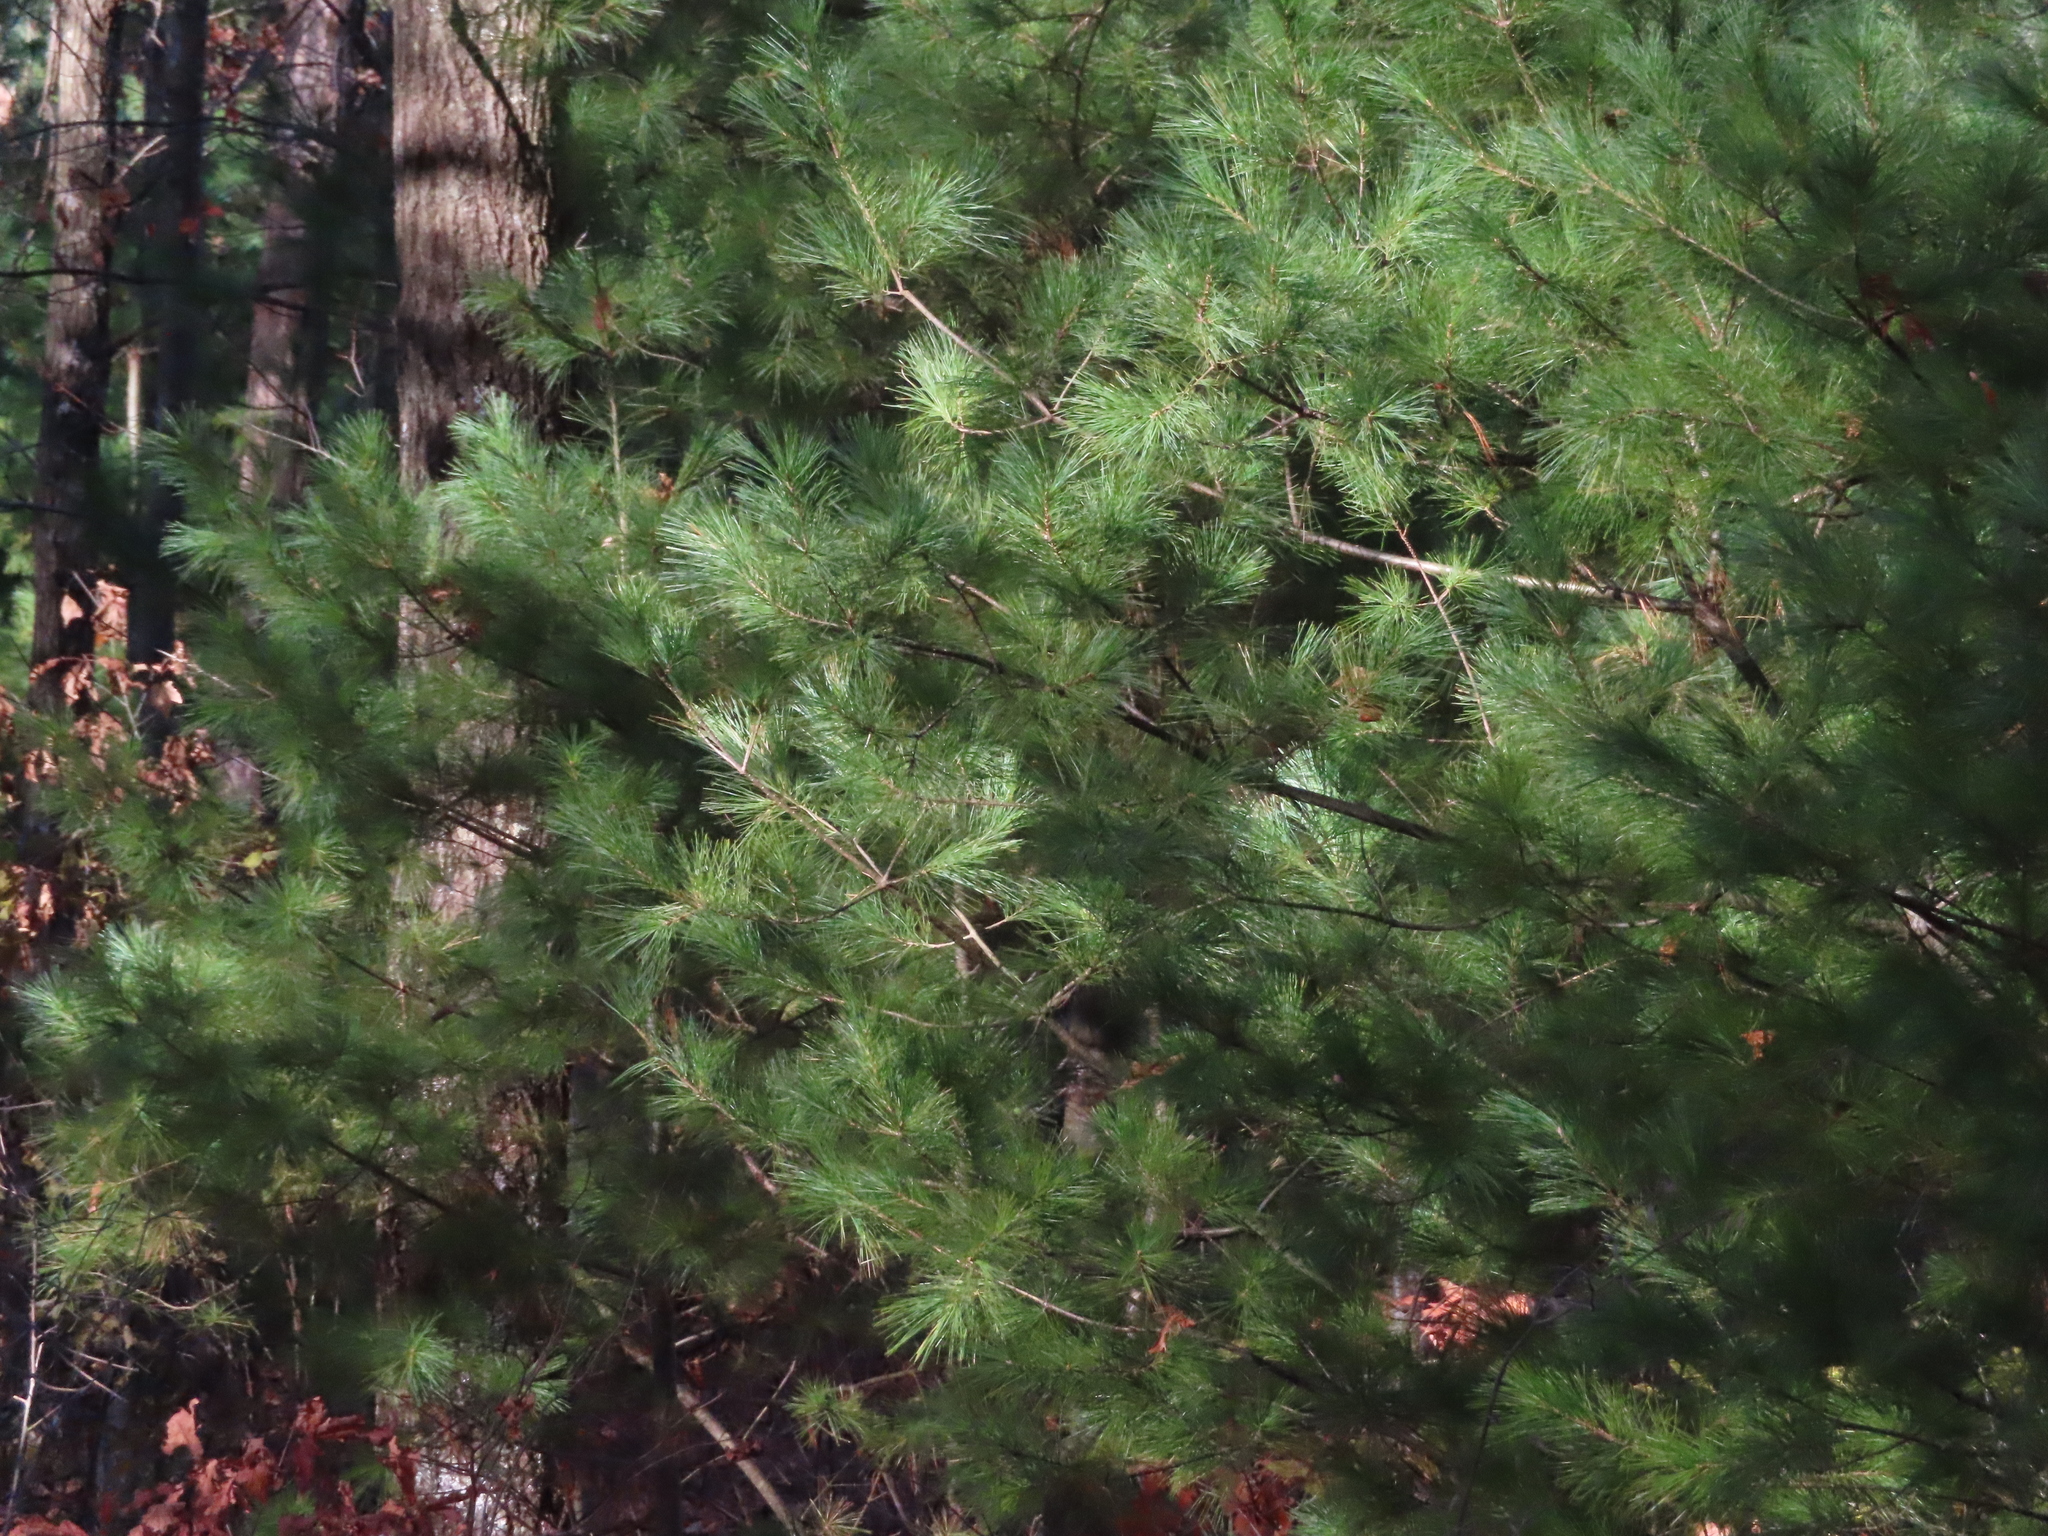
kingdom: Plantae
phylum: Tracheophyta
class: Pinopsida
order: Pinales
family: Pinaceae
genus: Pinus
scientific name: Pinus strobus
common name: Weymouth pine
